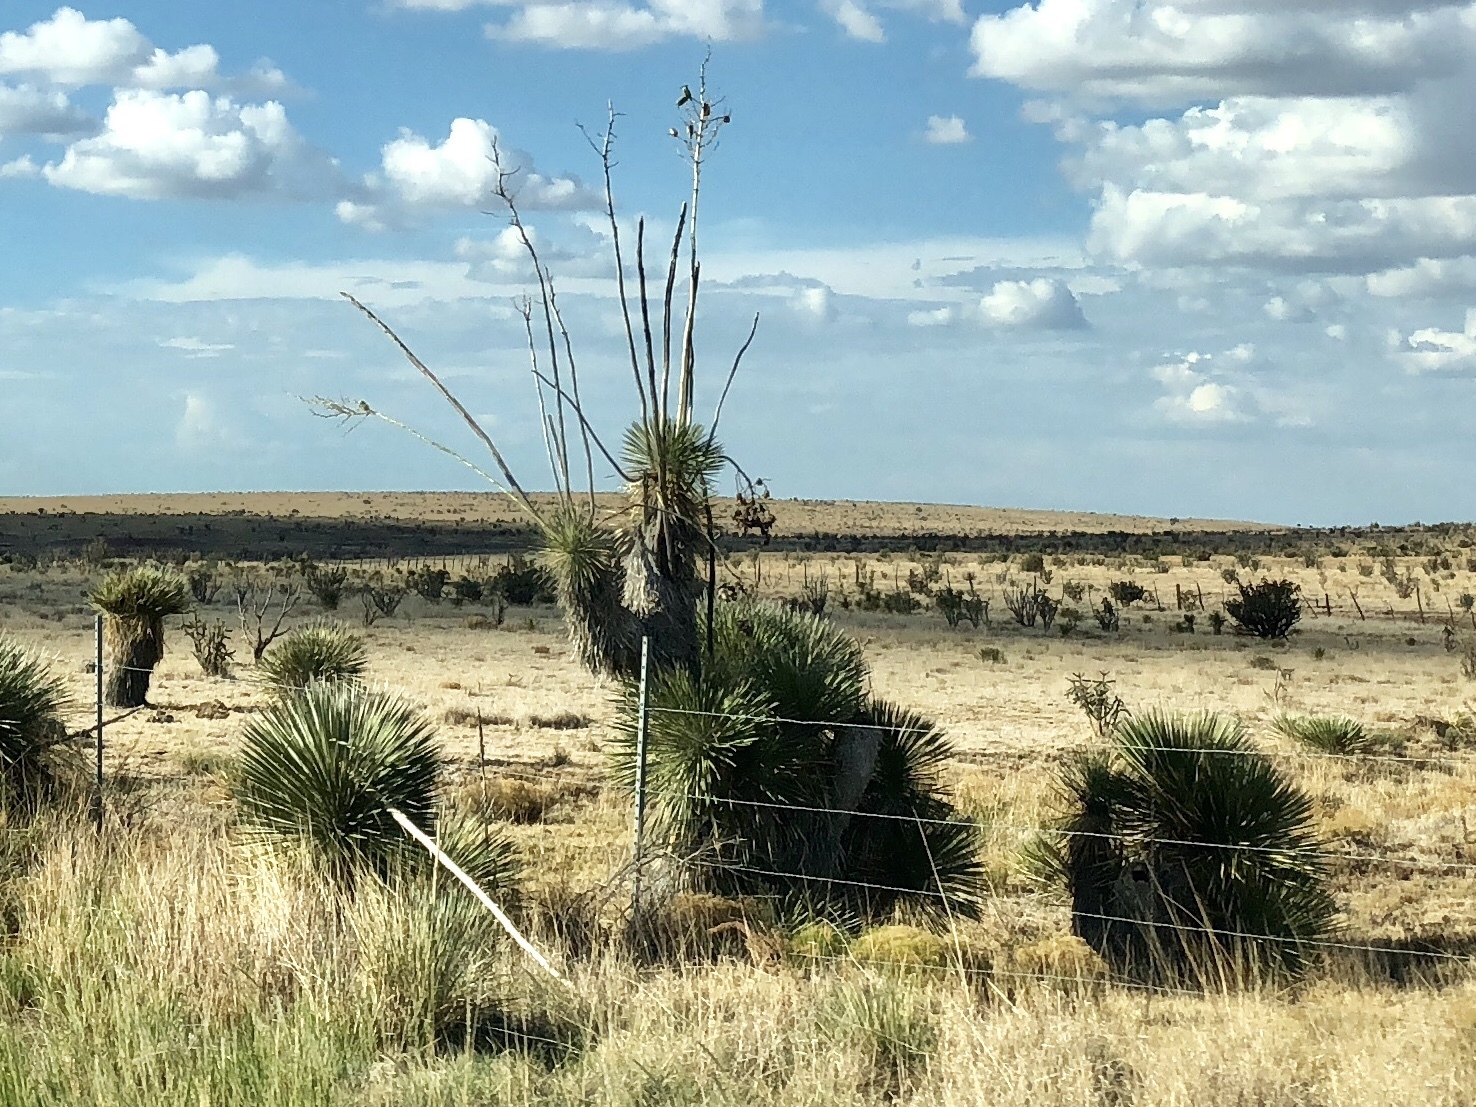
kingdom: Plantae
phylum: Tracheophyta
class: Liliopsida
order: Asparagales
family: Asparagaceae
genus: Yucca
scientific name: Yucca elata
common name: Palmella
